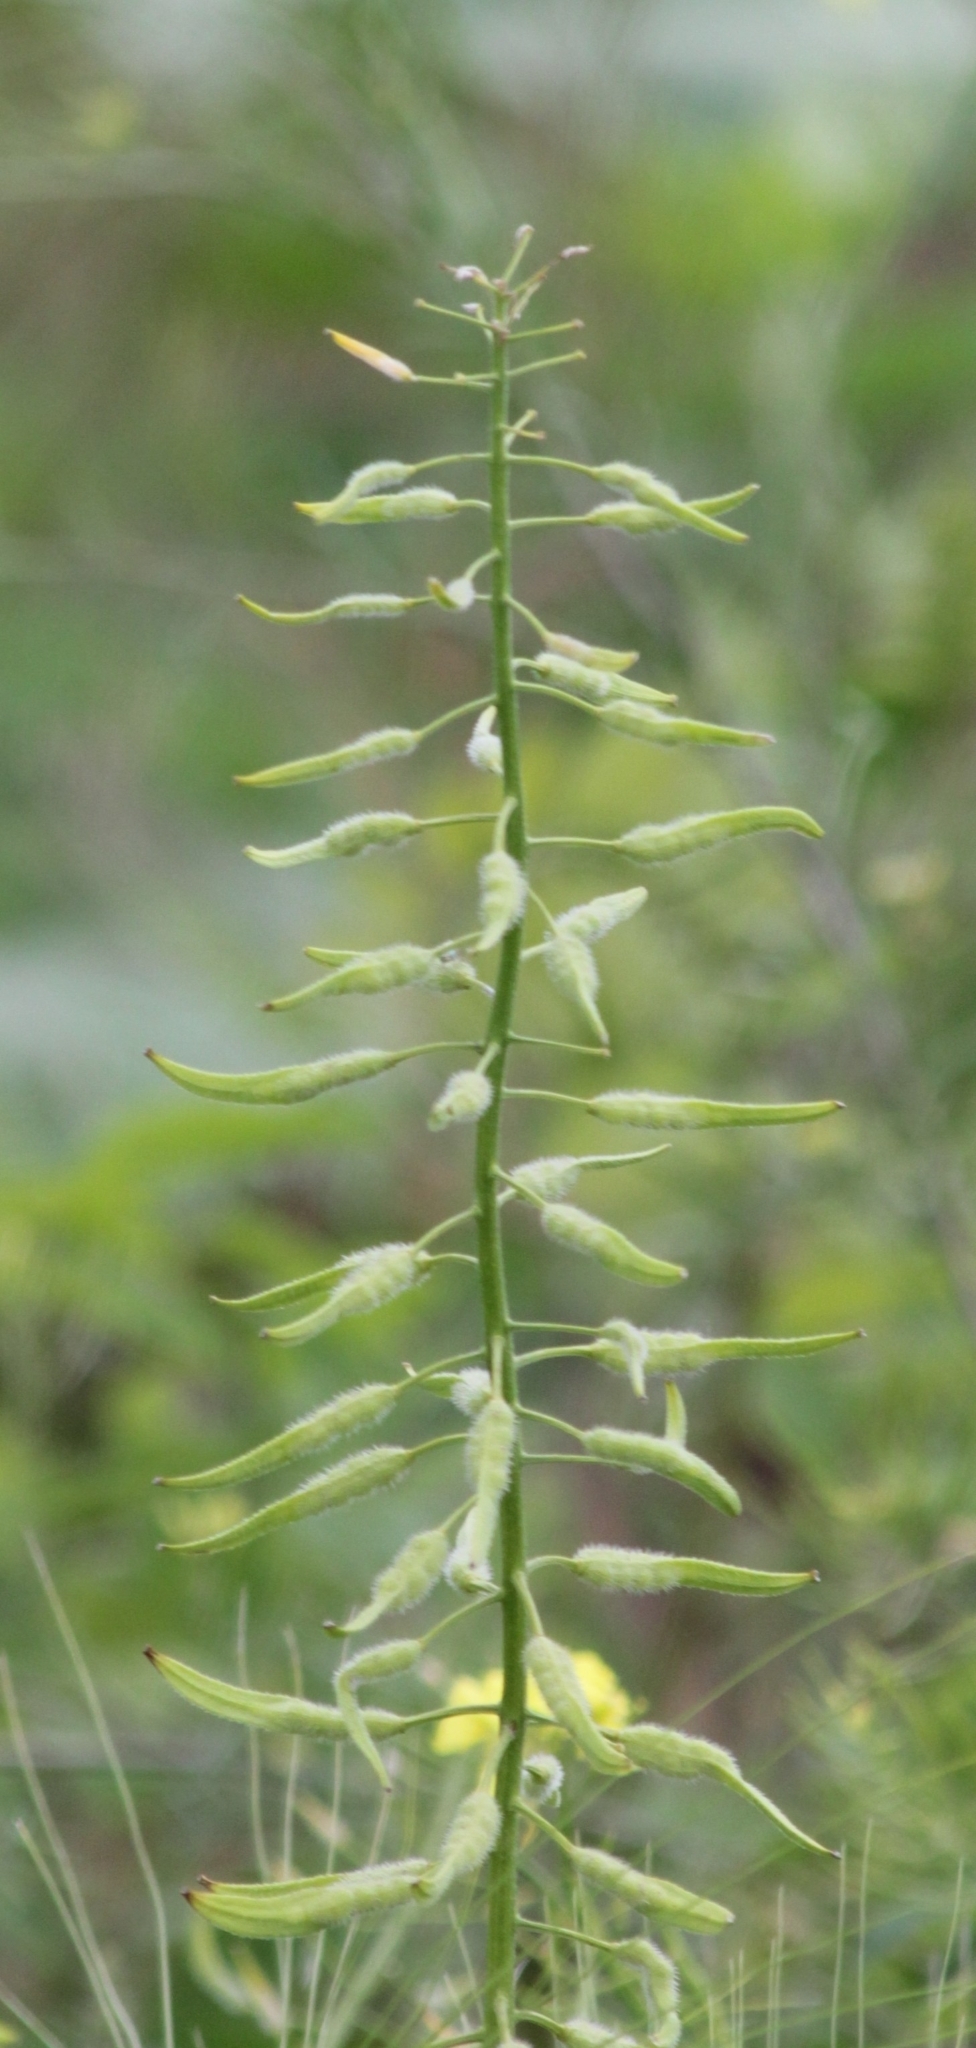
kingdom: Plantae
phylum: Tracheophyta
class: Magnoliopsida
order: Brassicales
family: Brassicaceae
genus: Sinapis
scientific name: Sinapis alba
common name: White mustard
